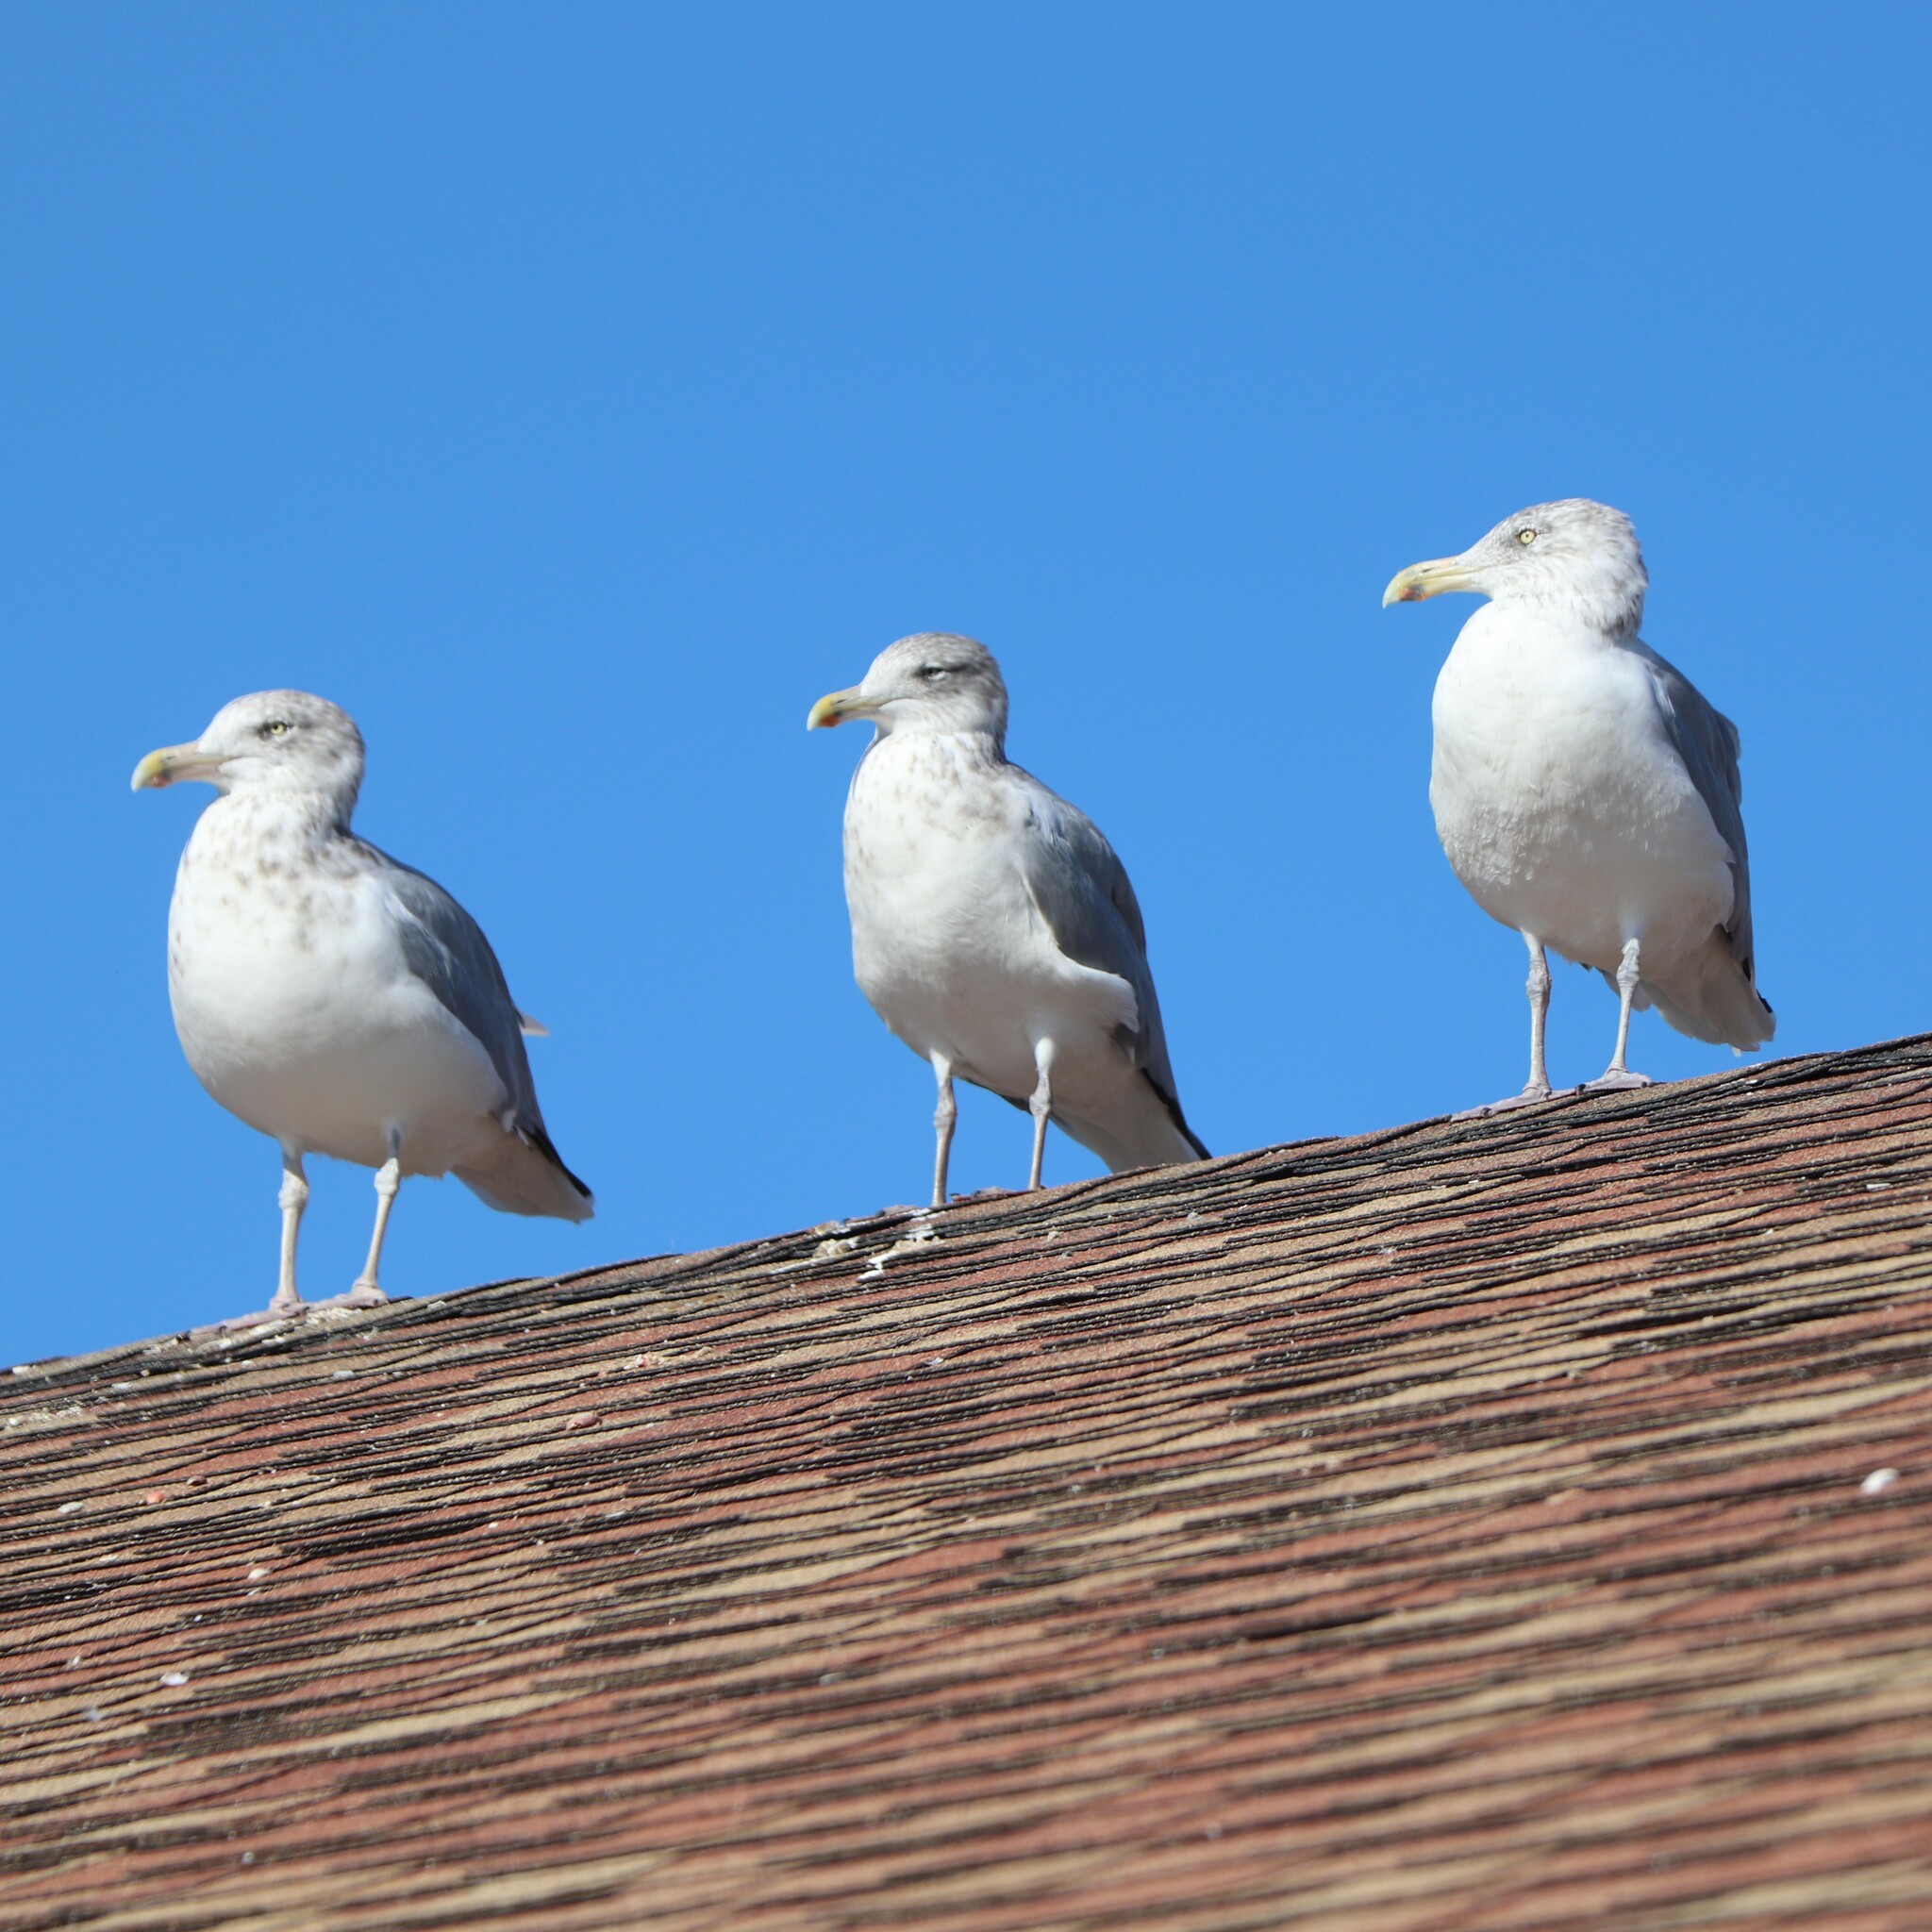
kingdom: Animalia
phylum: Chordata
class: Aves
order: Charadriiformes
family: Laridae
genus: Larus
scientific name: Larus argentatus
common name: Herring gull
